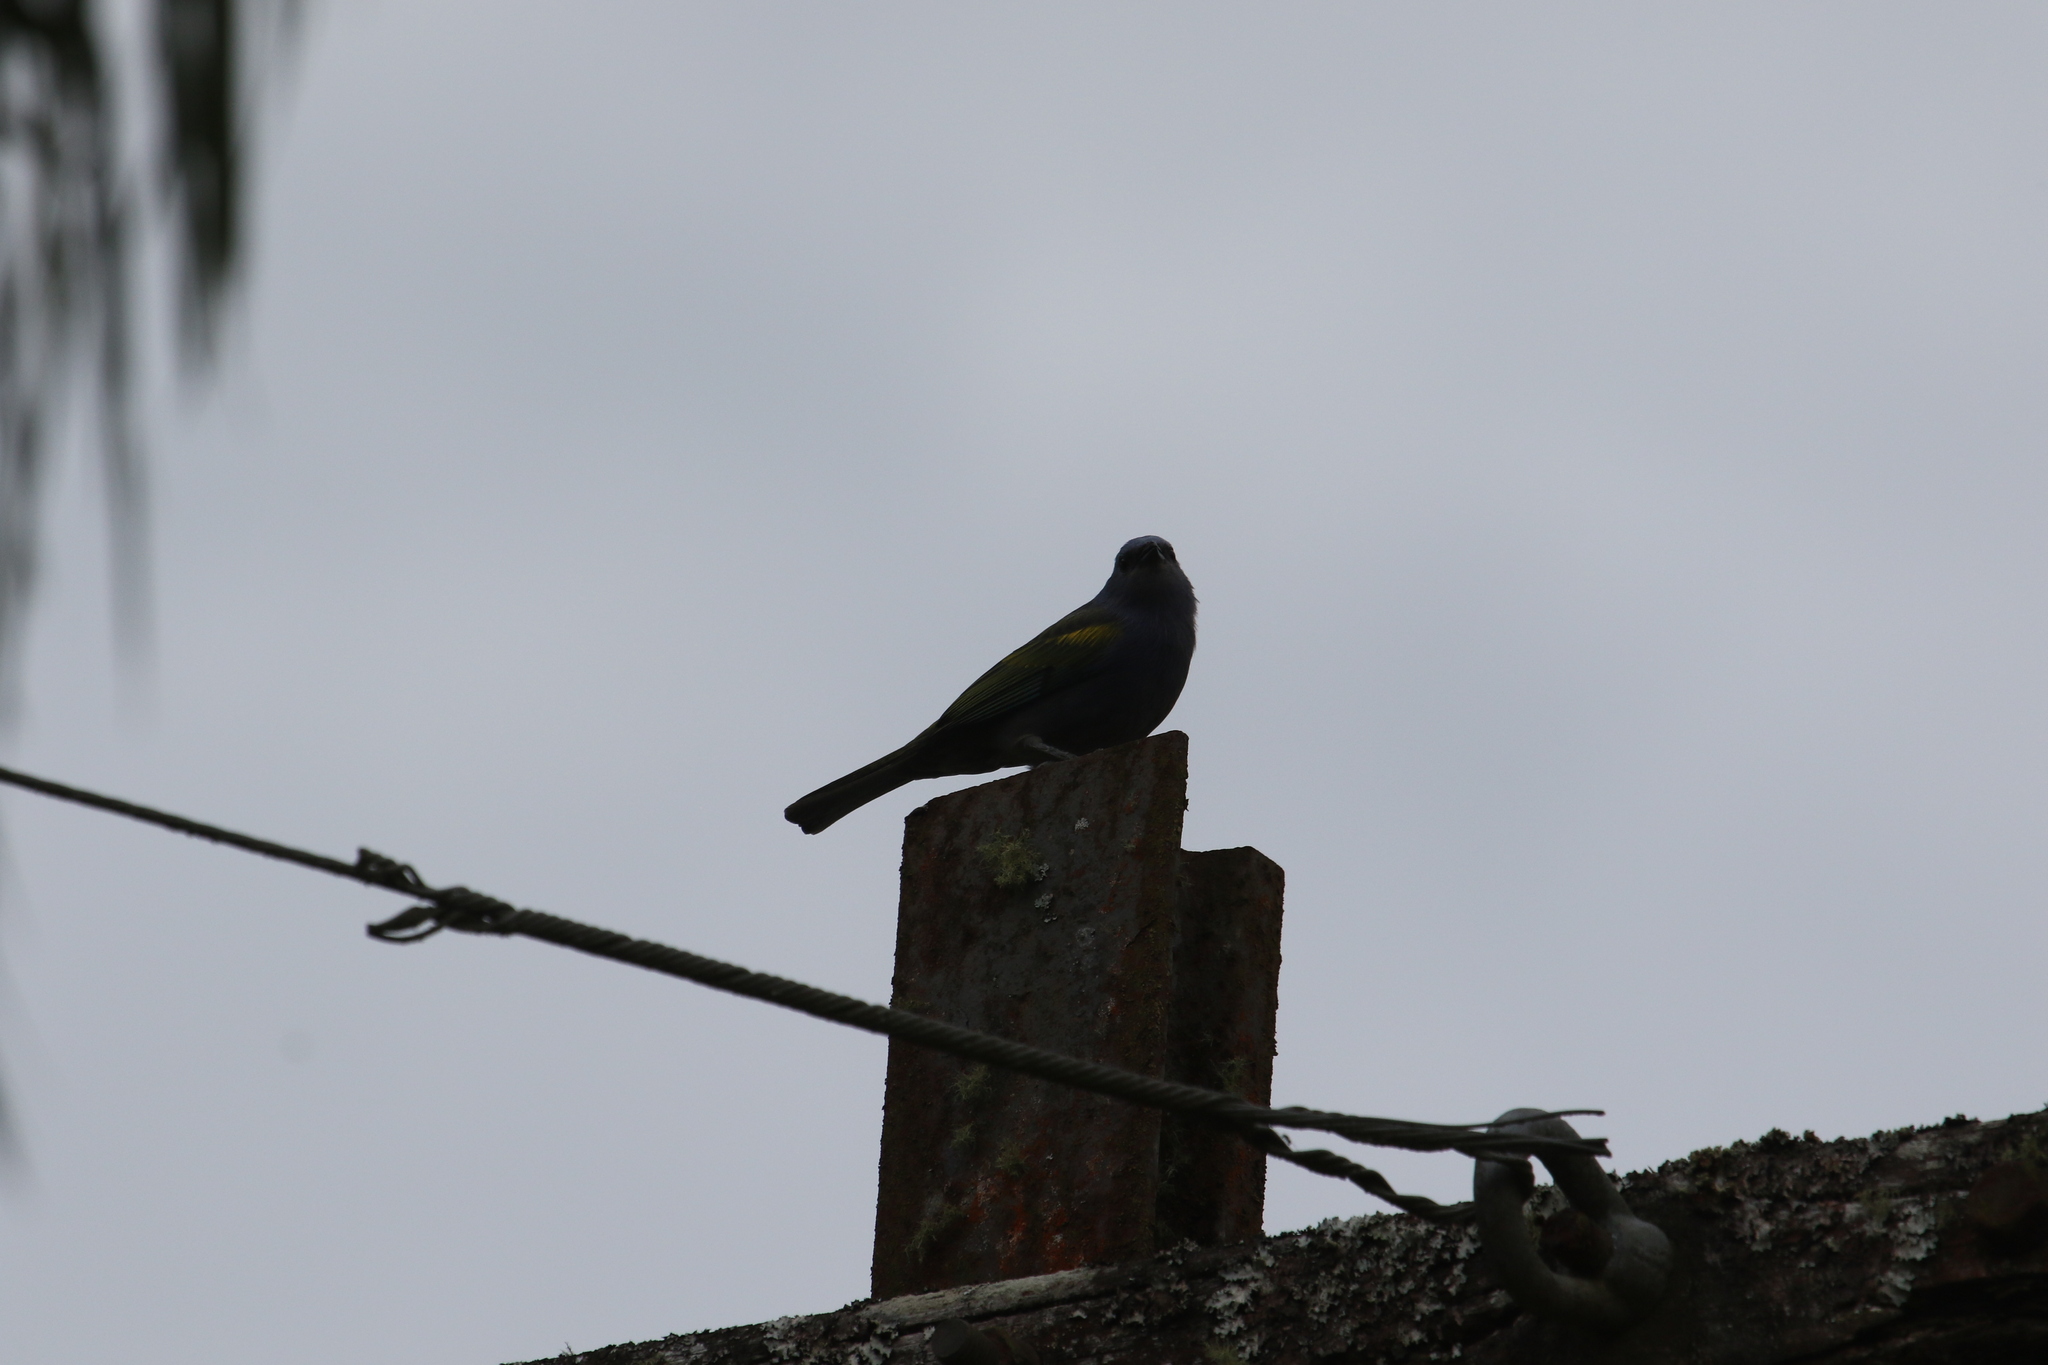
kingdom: Animalia
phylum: Chordata
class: Aves
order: Passeriformes
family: Thraupidae
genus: Thraupis
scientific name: Thraupis ornata
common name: Golden-chevroned tanager
